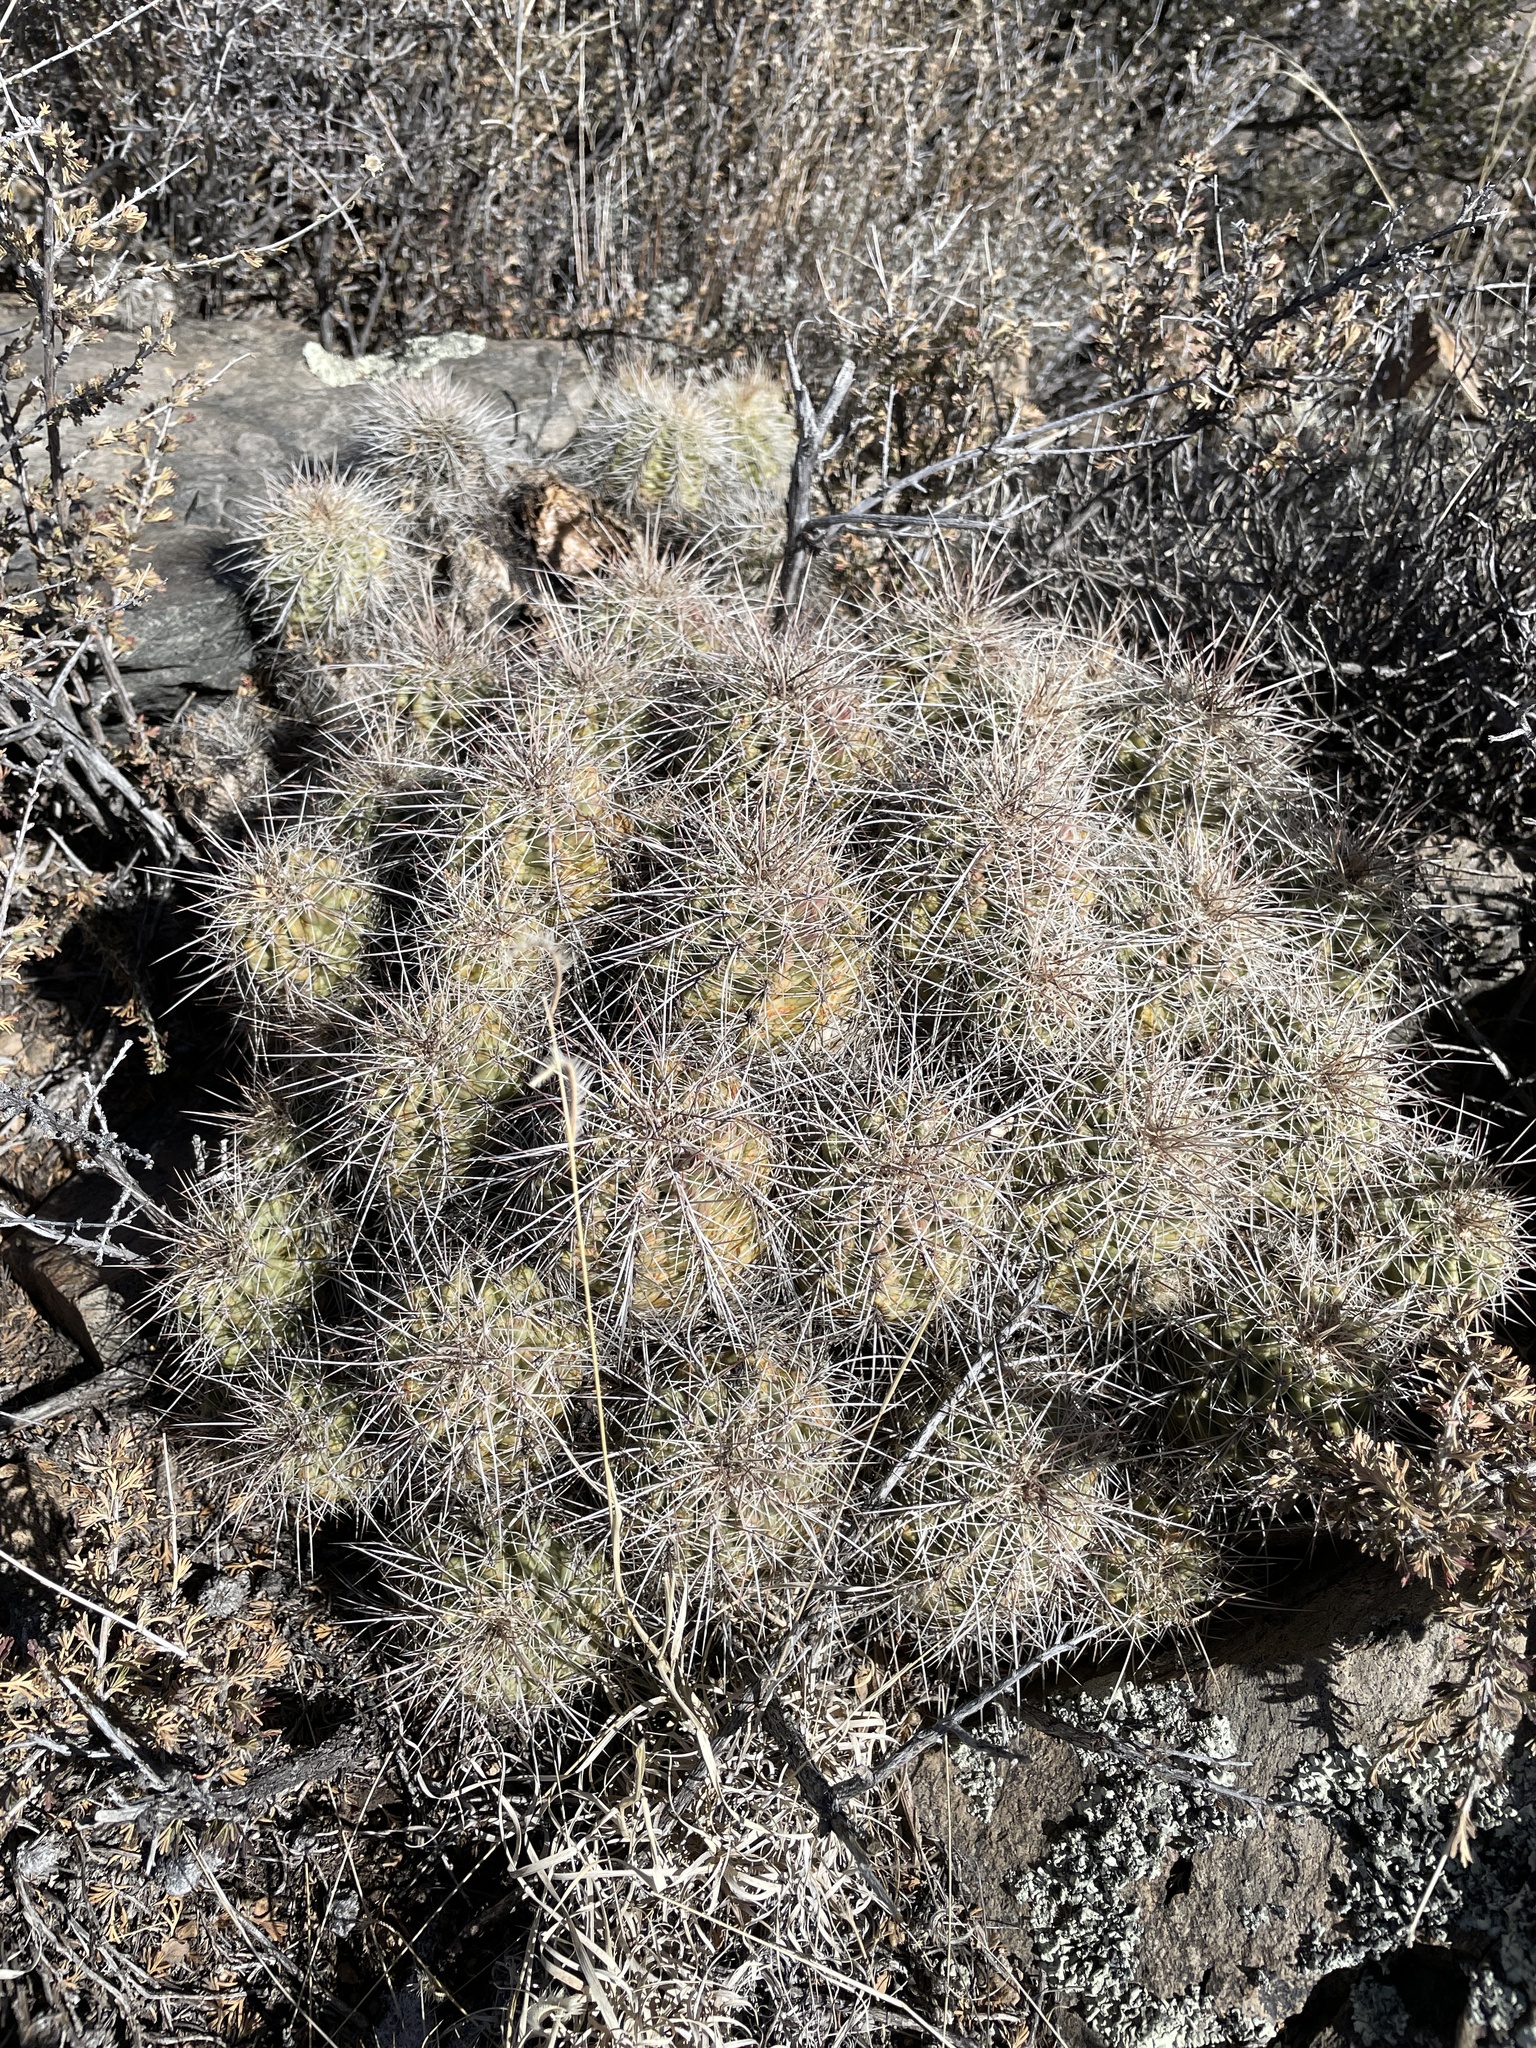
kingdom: Plantae
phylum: Tracheophyta
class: Magnoliopsida
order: Caryophyllales
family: Cactaceae
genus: Echinocereus
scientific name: Echinocereus coccineus
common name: Scarlet hedgehog cactus
